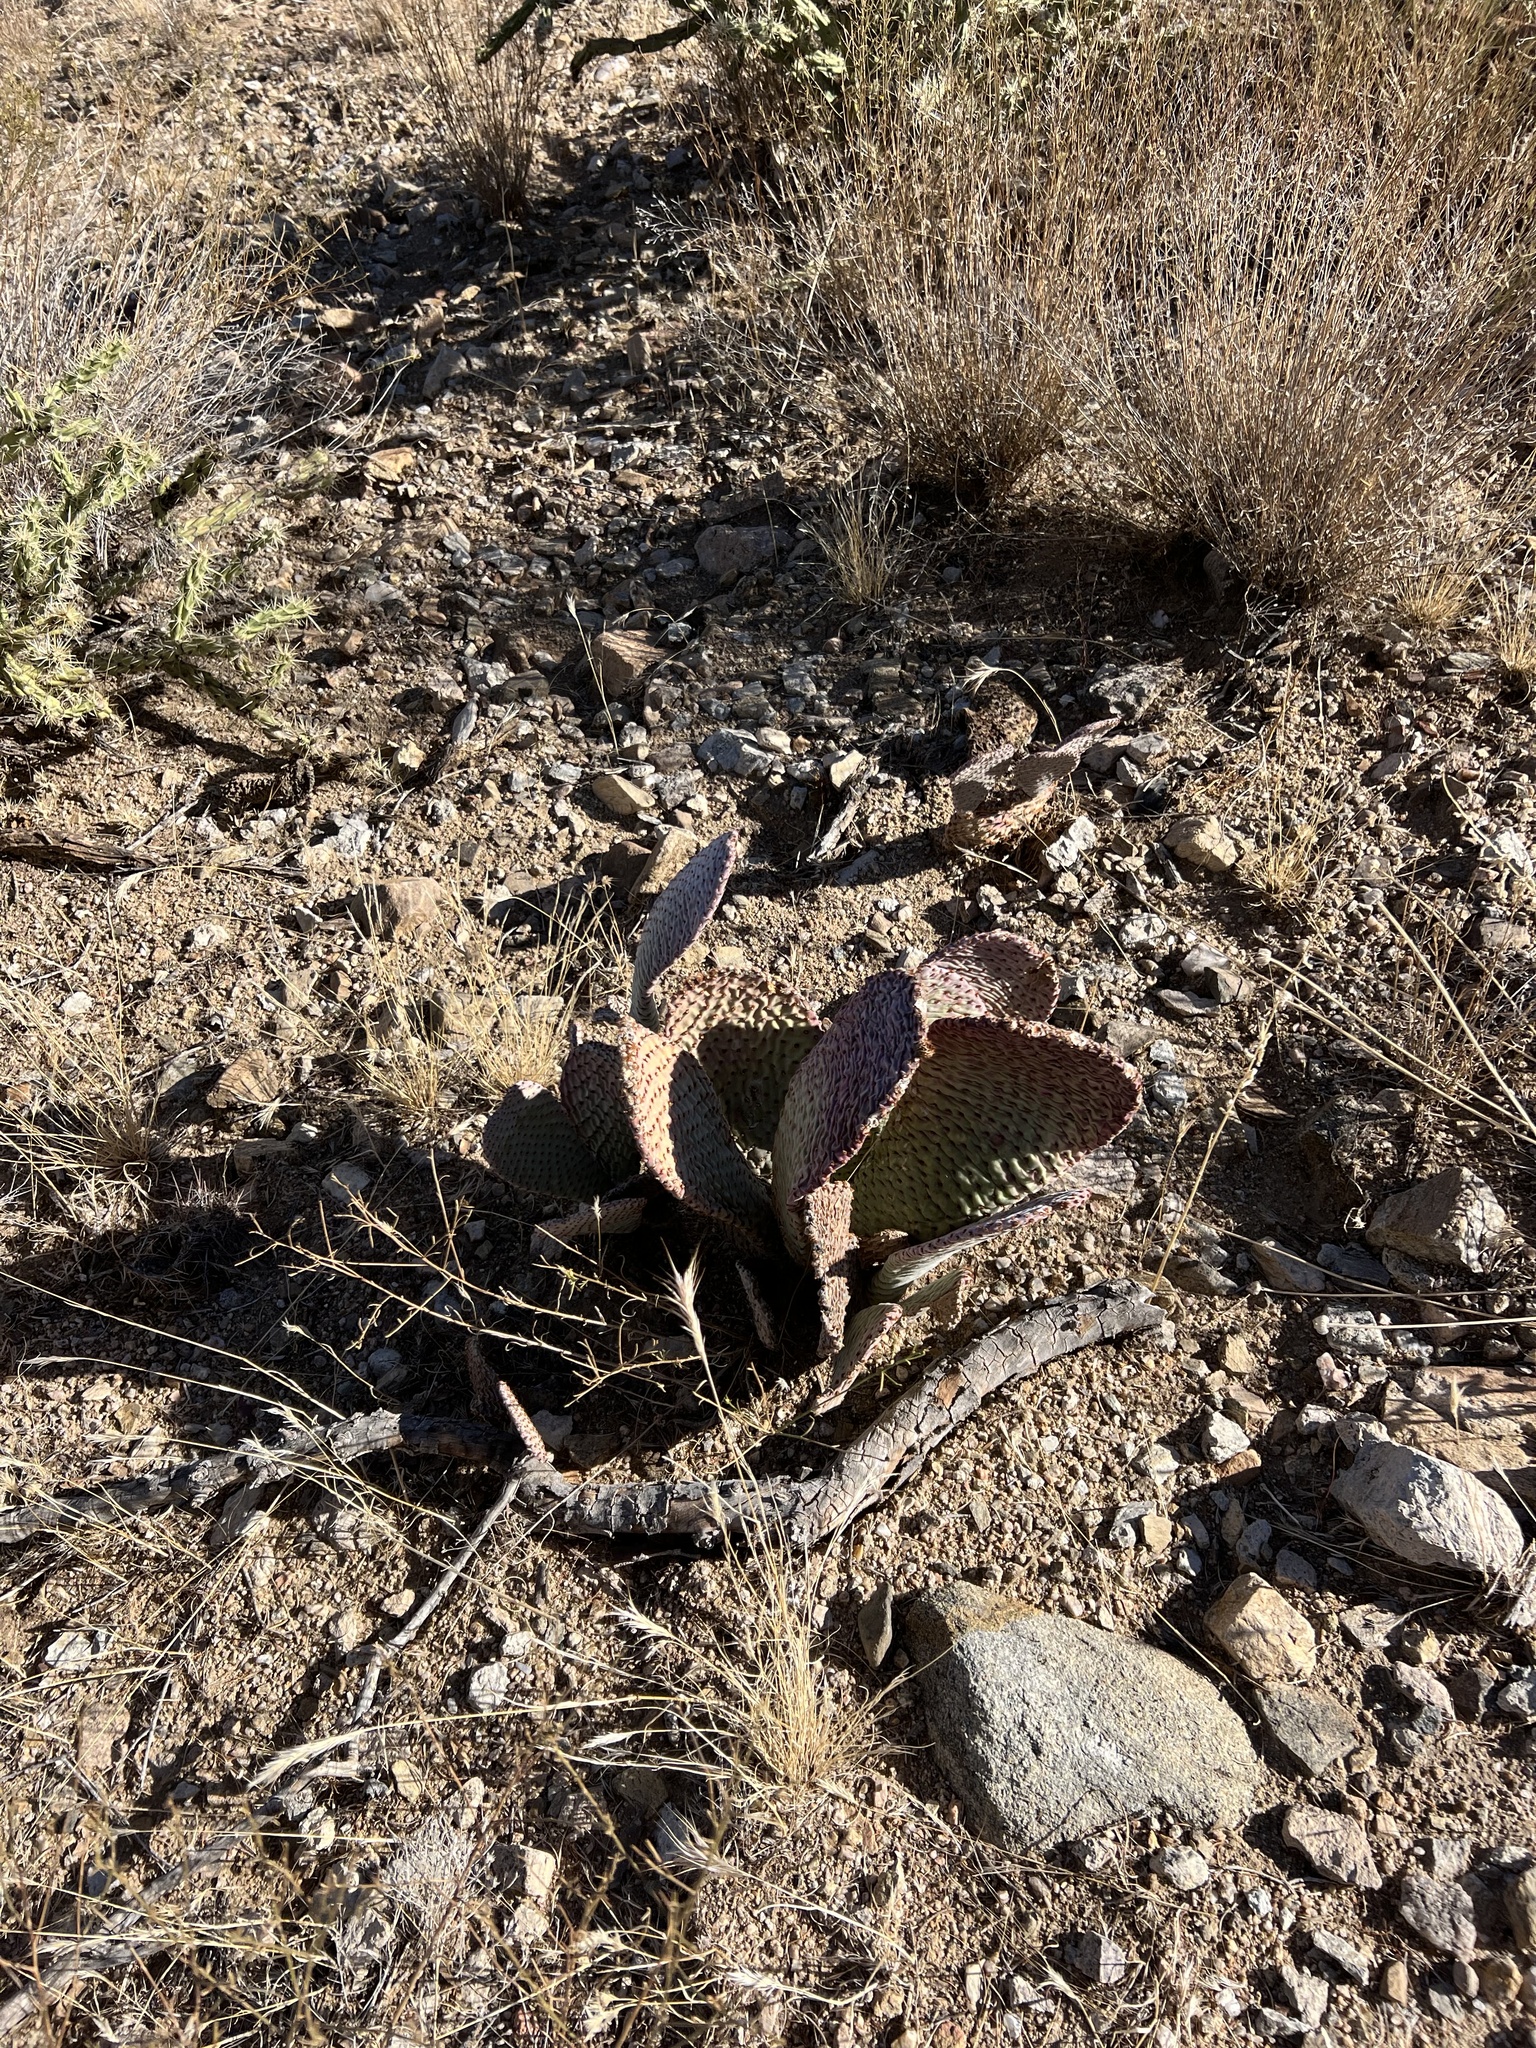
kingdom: Plantae
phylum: Tracheophyta
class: Magnoliopsida
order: Caryophyllales
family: Cactaceae
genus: Opuntia
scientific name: Opuntia basilaris
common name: Beavertail prickly-pear
